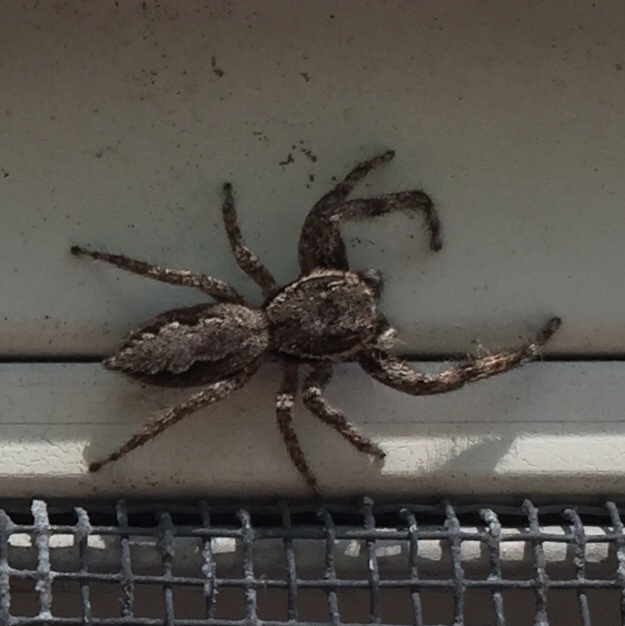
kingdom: Animalia
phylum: Arthropoda
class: Arachnida
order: Araneae
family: Salticidae
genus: Platycryptus
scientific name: Platycryptus undatus
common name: Tan jumping spider
